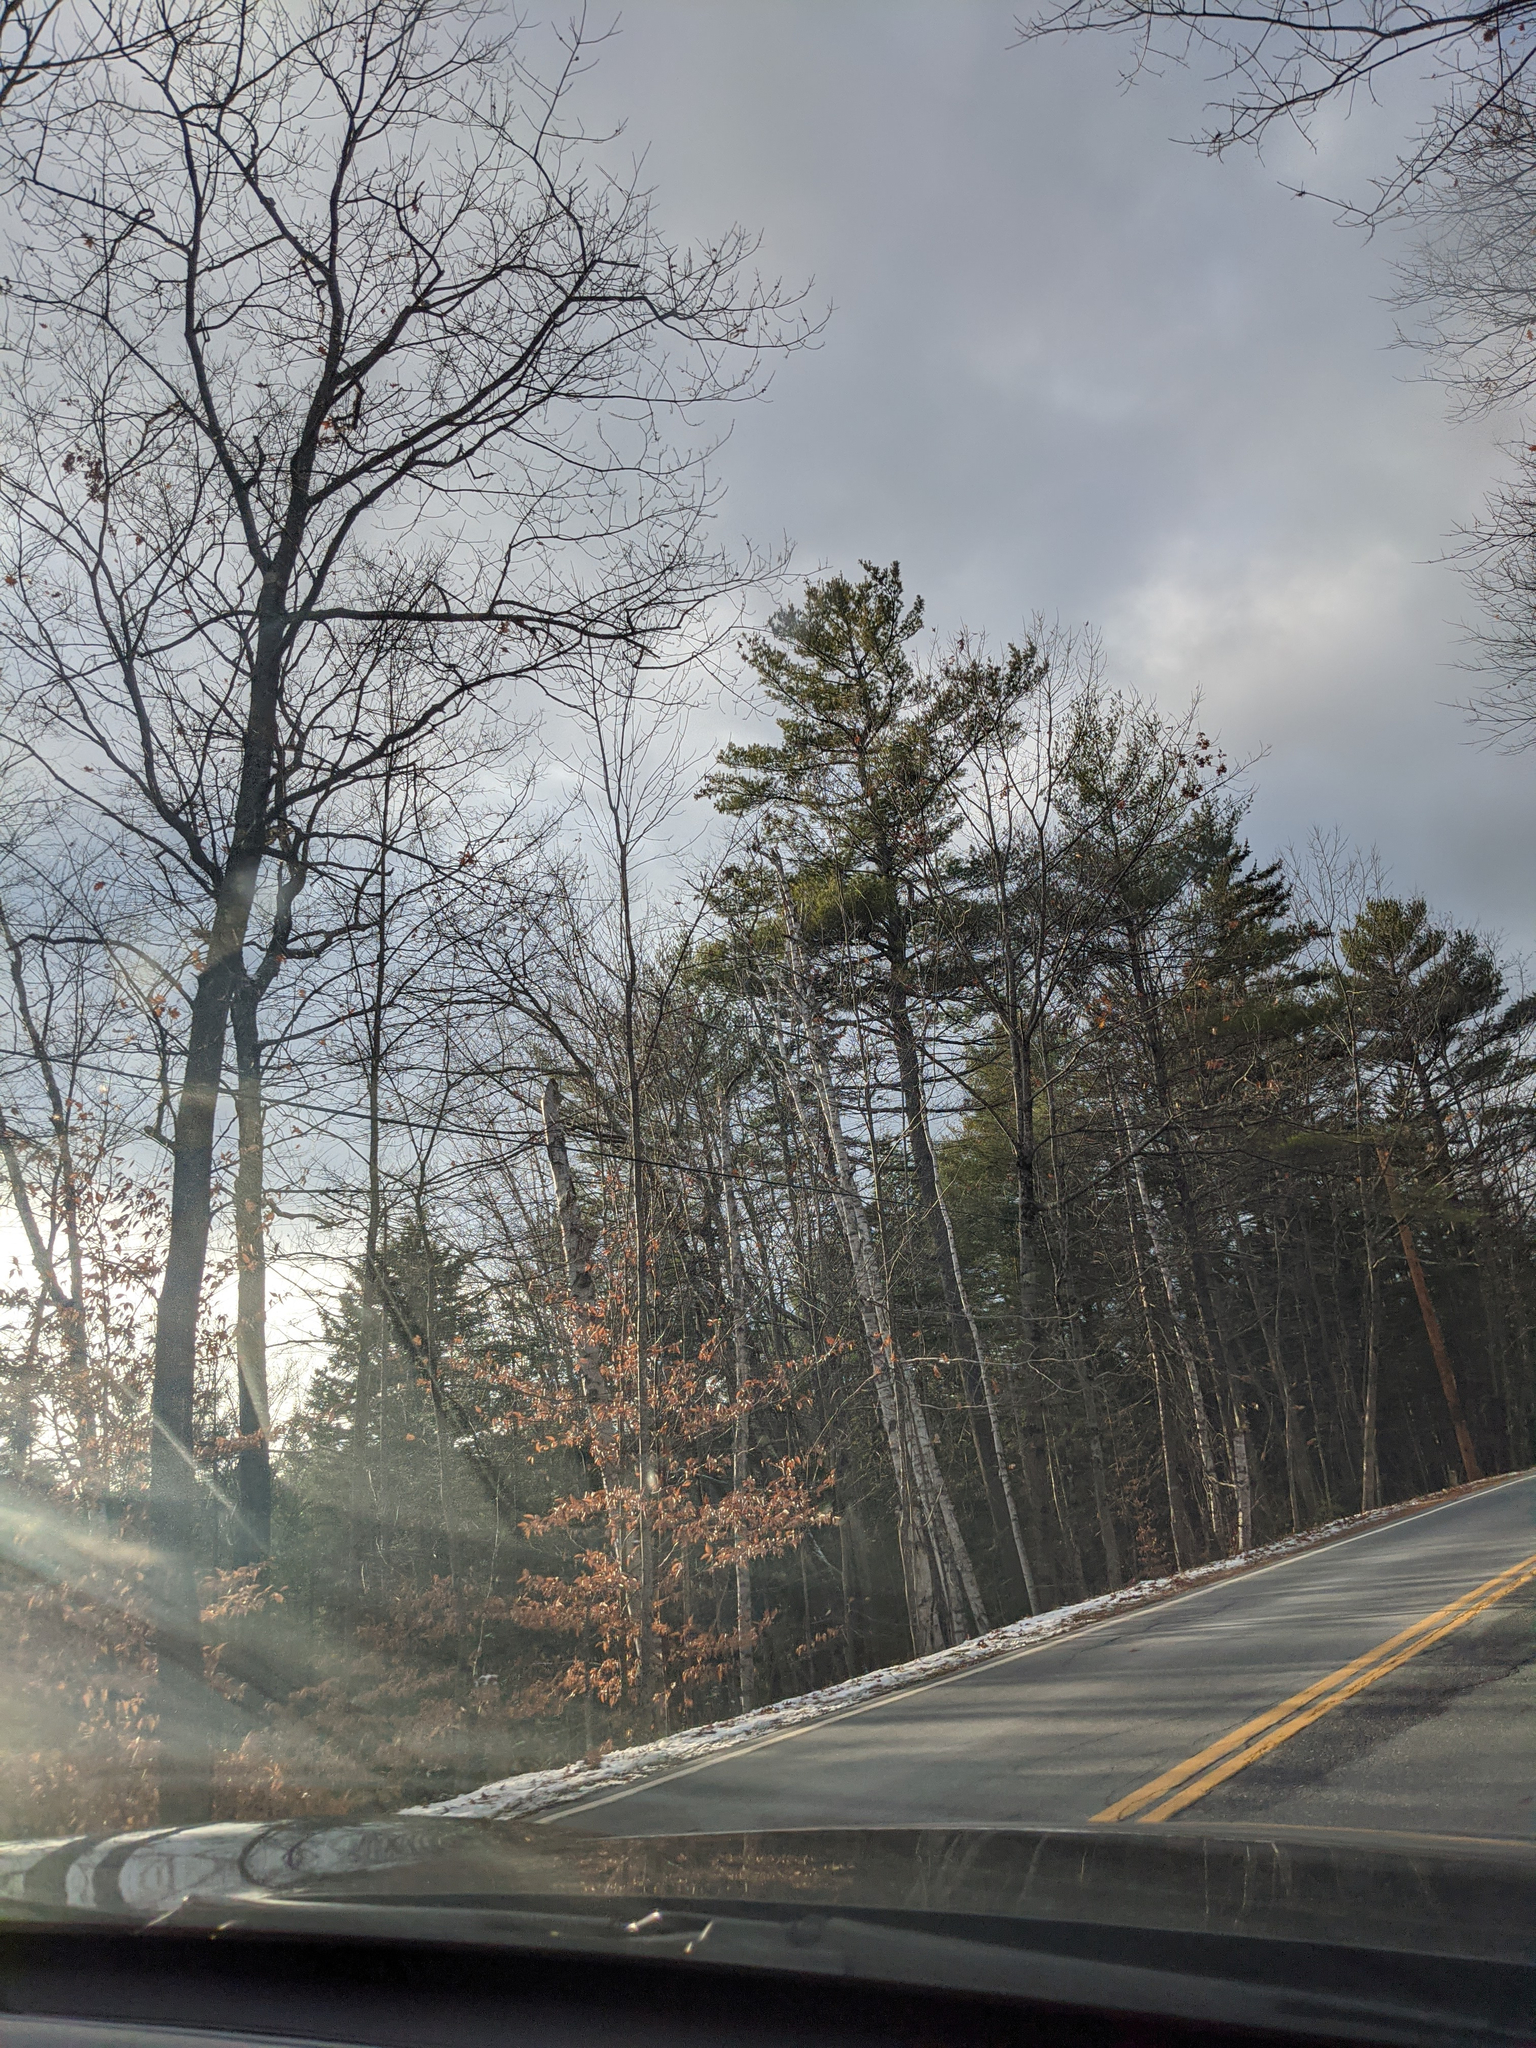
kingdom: Plantae
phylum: Tracheophyta
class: Pinopsida
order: Pinales
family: Pinaceae
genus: Pinus
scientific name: Pinus strobus
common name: Weymouth pine
